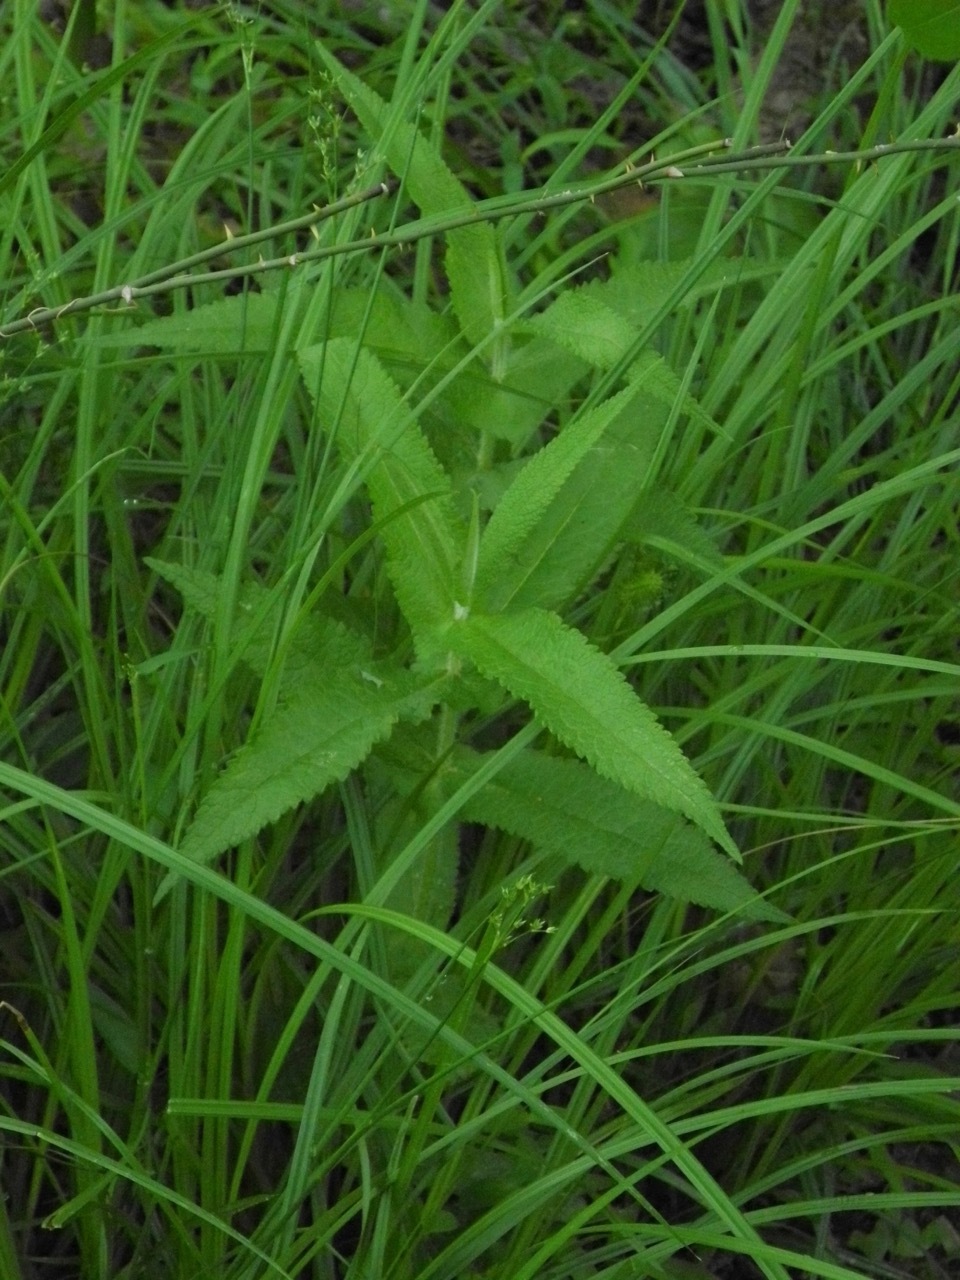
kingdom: Plantae
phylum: Tracheophyta
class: Magnoliopsida
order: Asterales
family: Asteraceae
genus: Eupatorium
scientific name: Eupatorium perfoliatum
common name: Boneset
